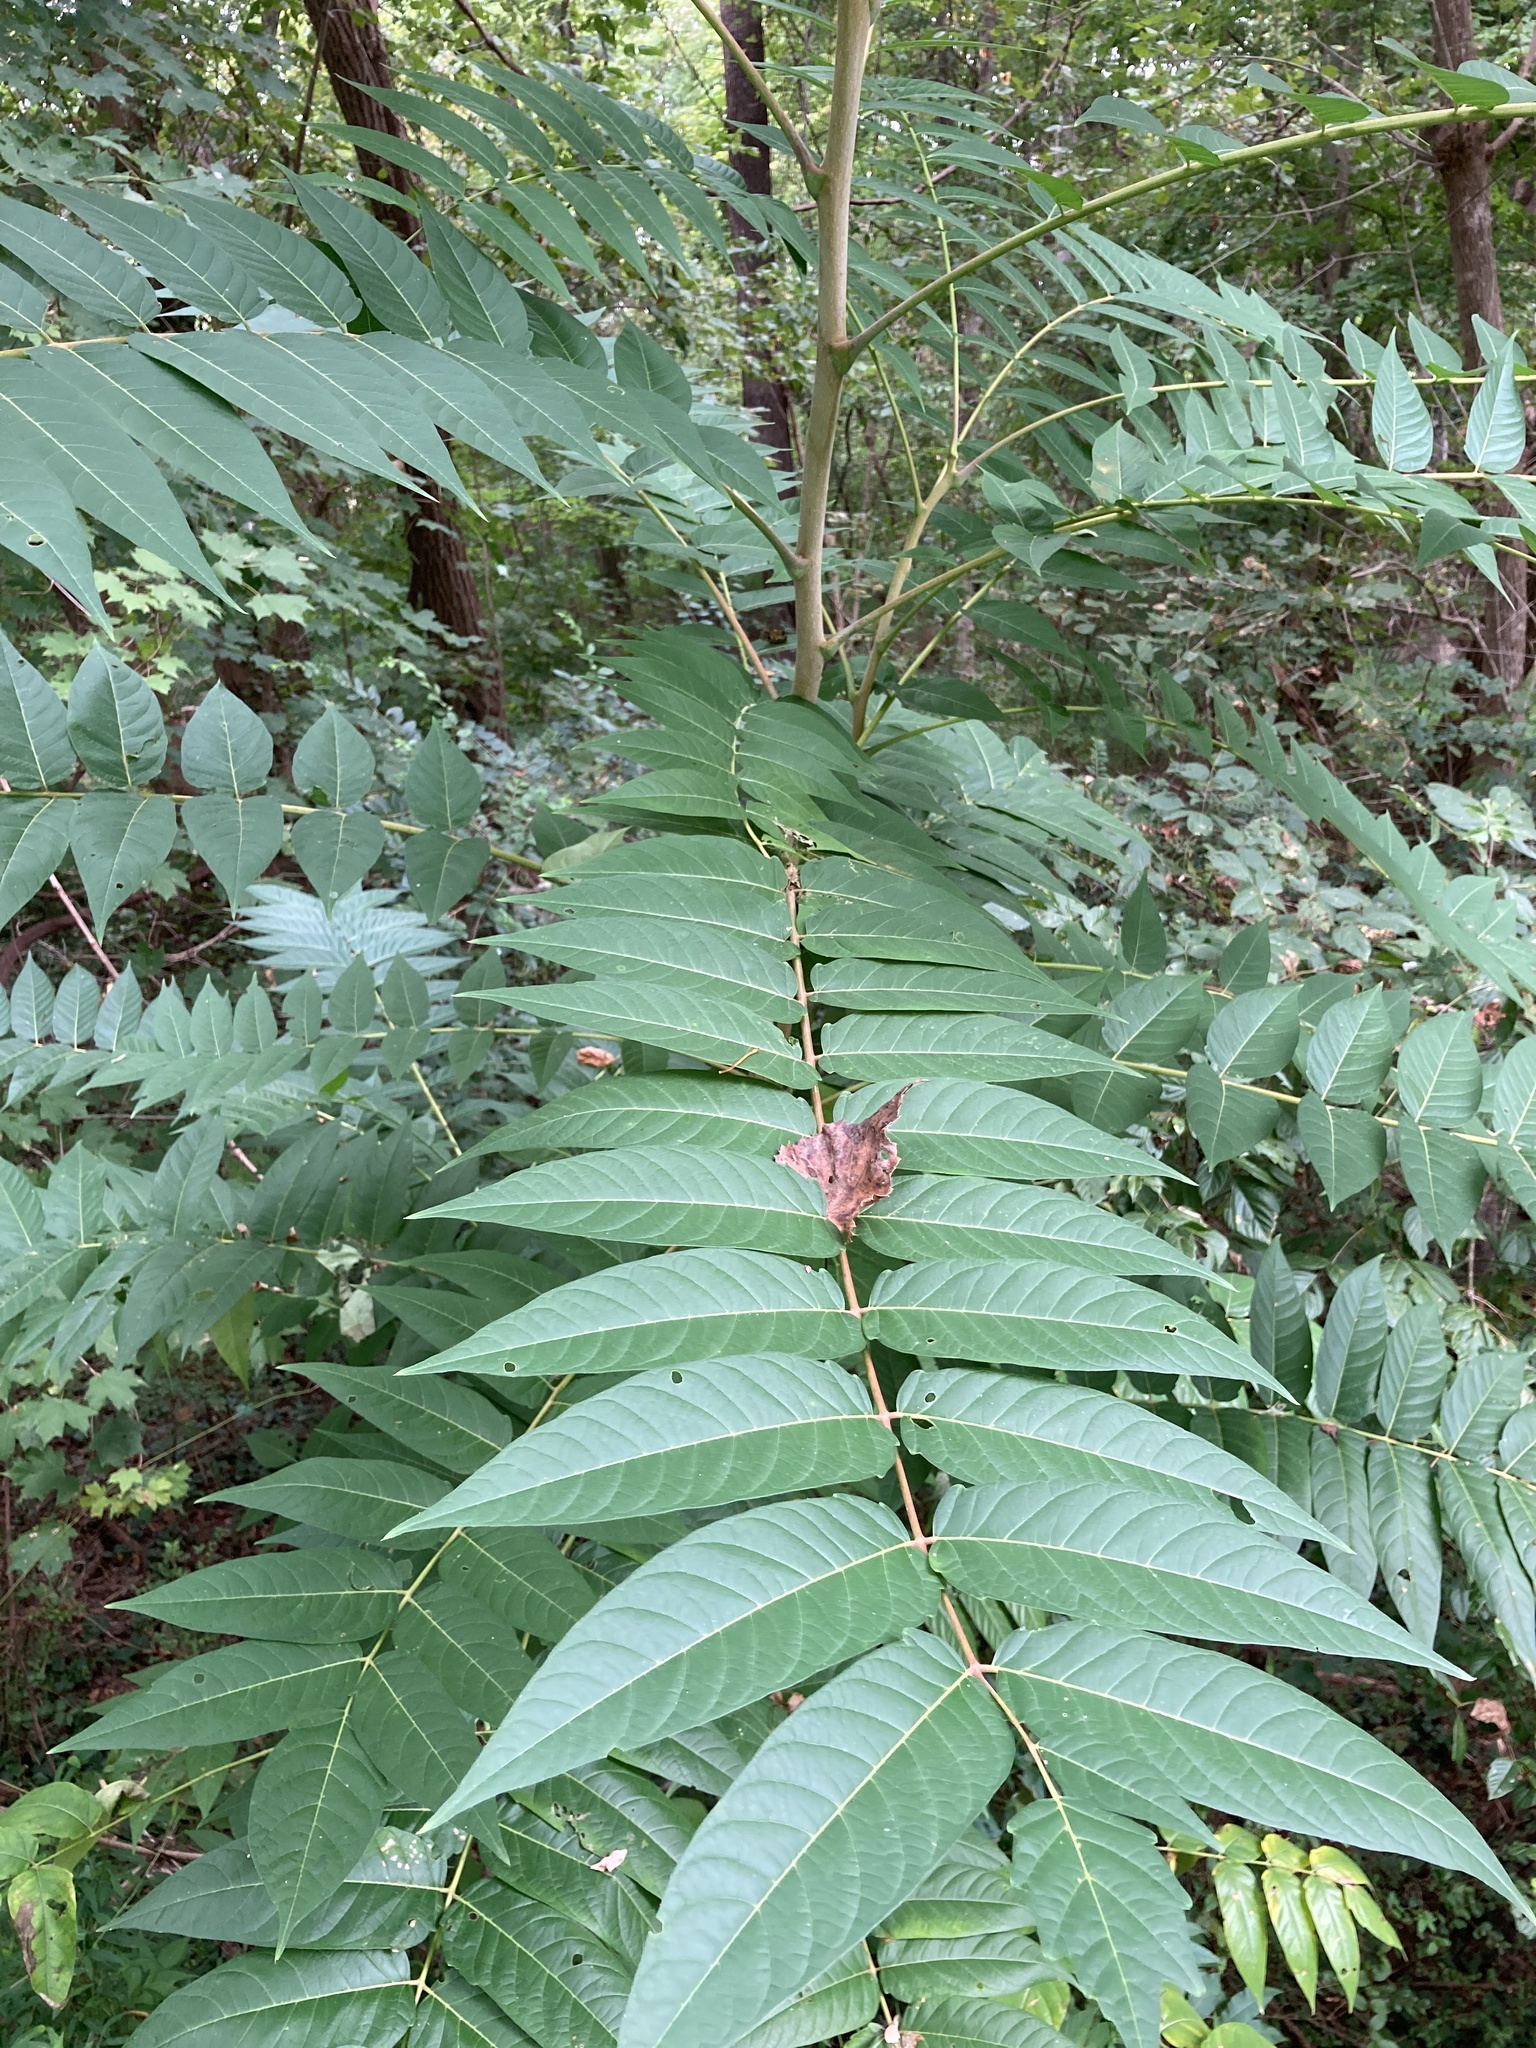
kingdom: Plantae
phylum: Tracheophyta
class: Magnoliopsida
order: Sapindales
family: Simaroubaceae
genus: Ailanthus
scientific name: Ailanthus altissima
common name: Tree-of-heaven
